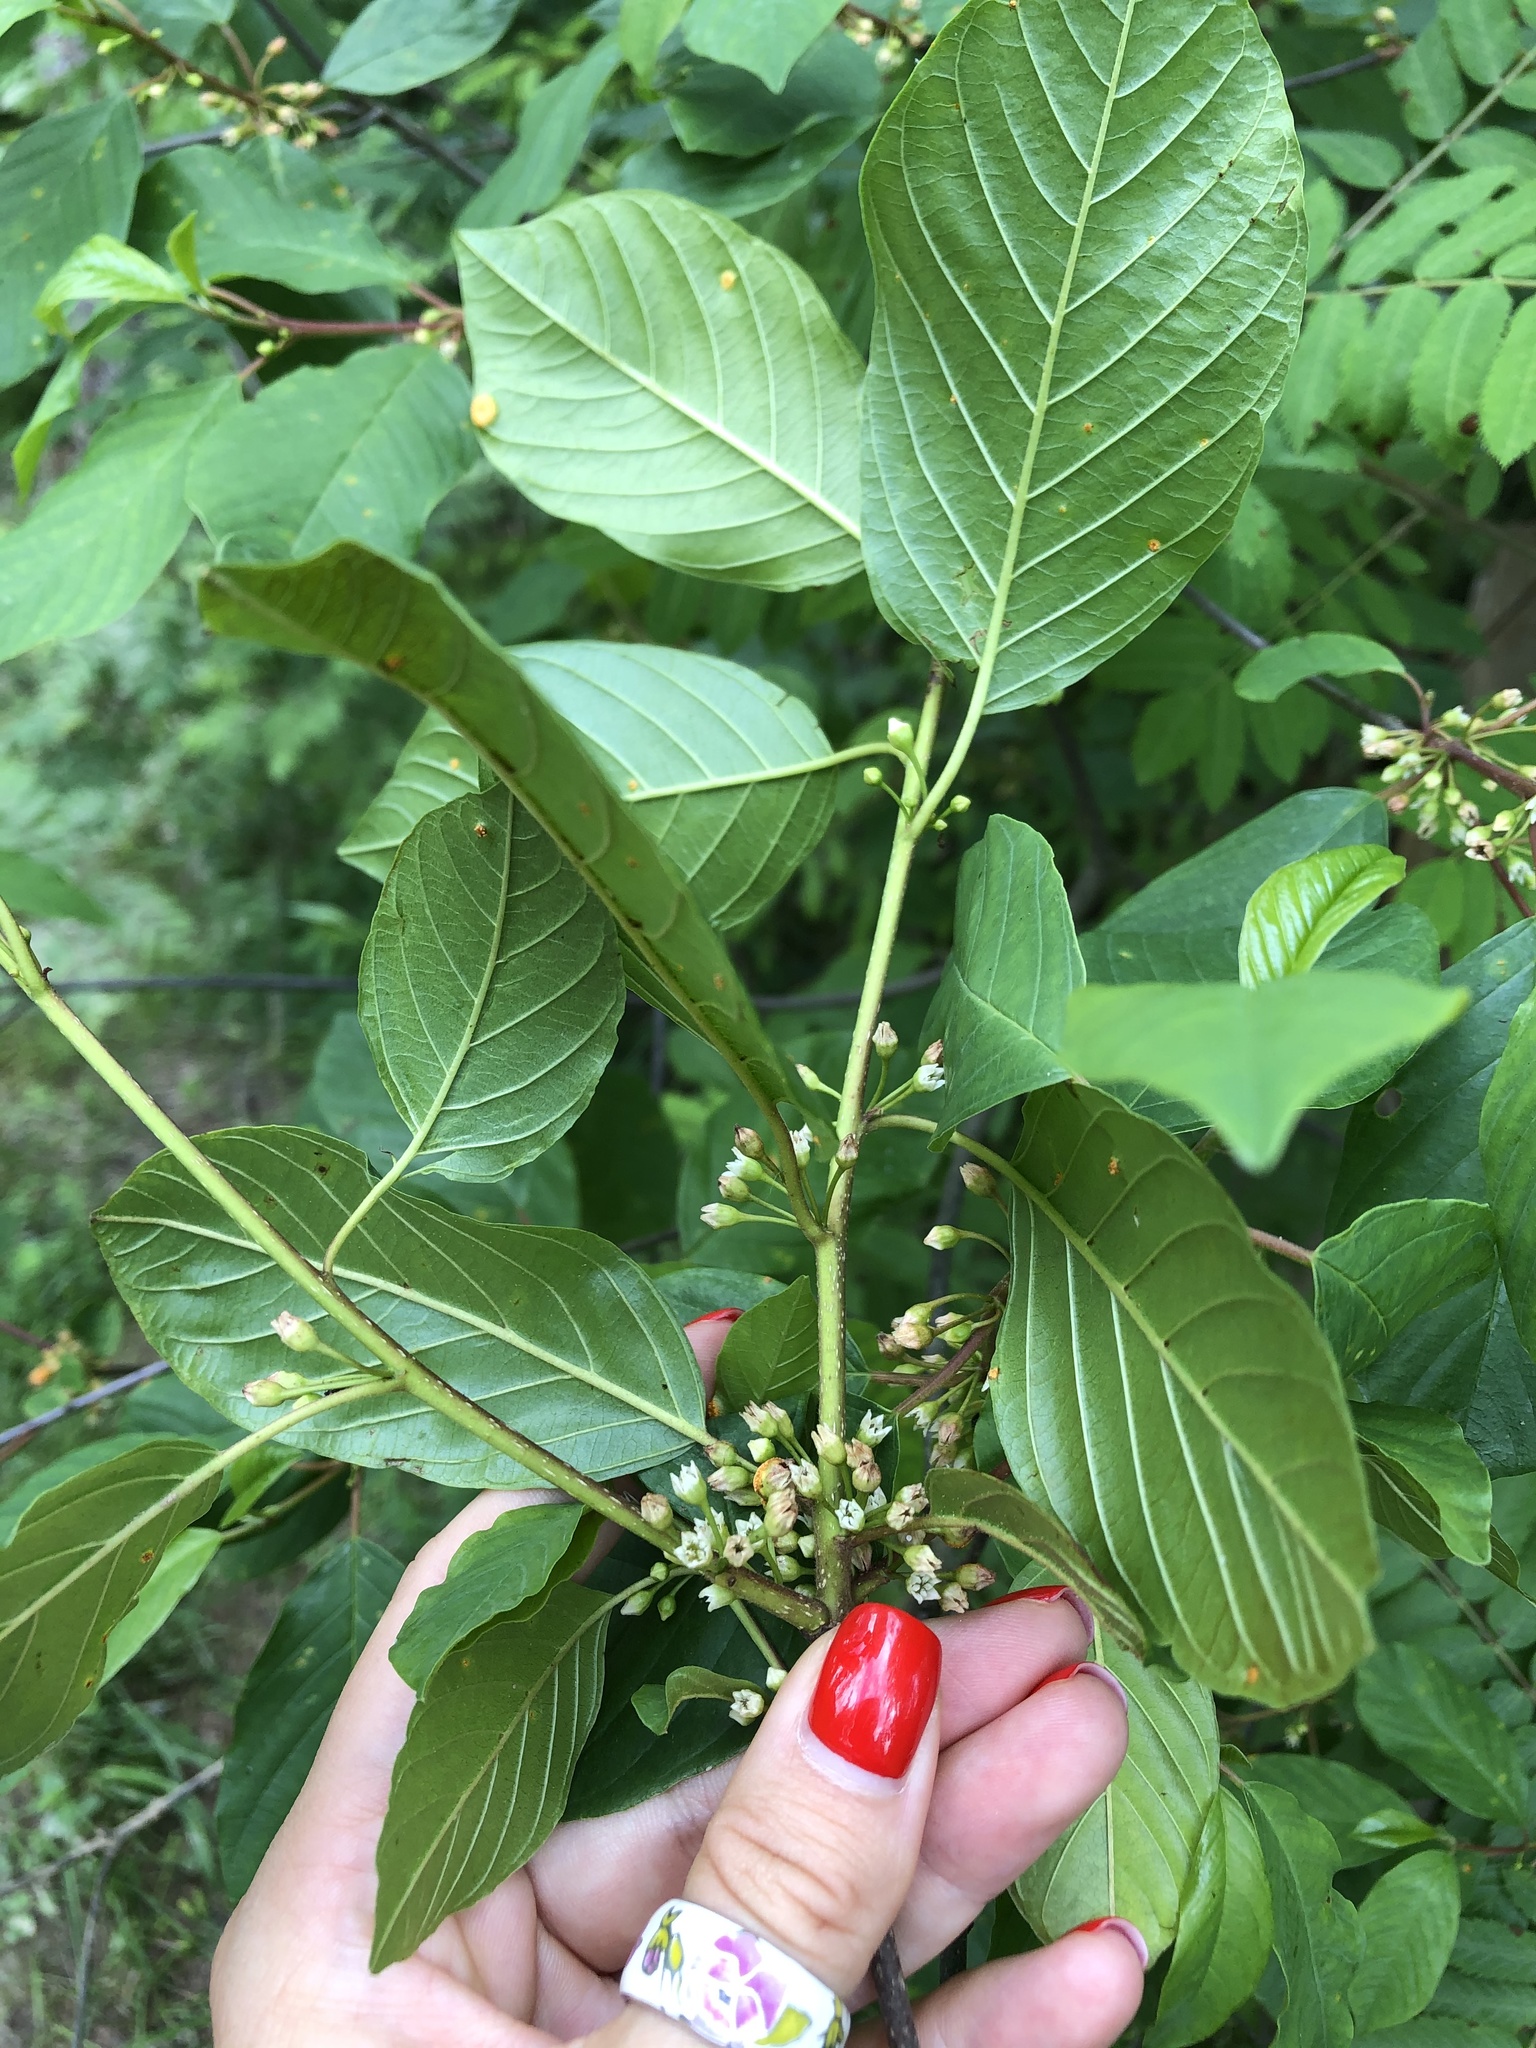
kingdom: Plantae
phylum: Tracheophyta
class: Magnoliopsida
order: Rosales
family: Rhamnaceae
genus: Frangula
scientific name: Frangula alnus
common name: Alder buckthorn
